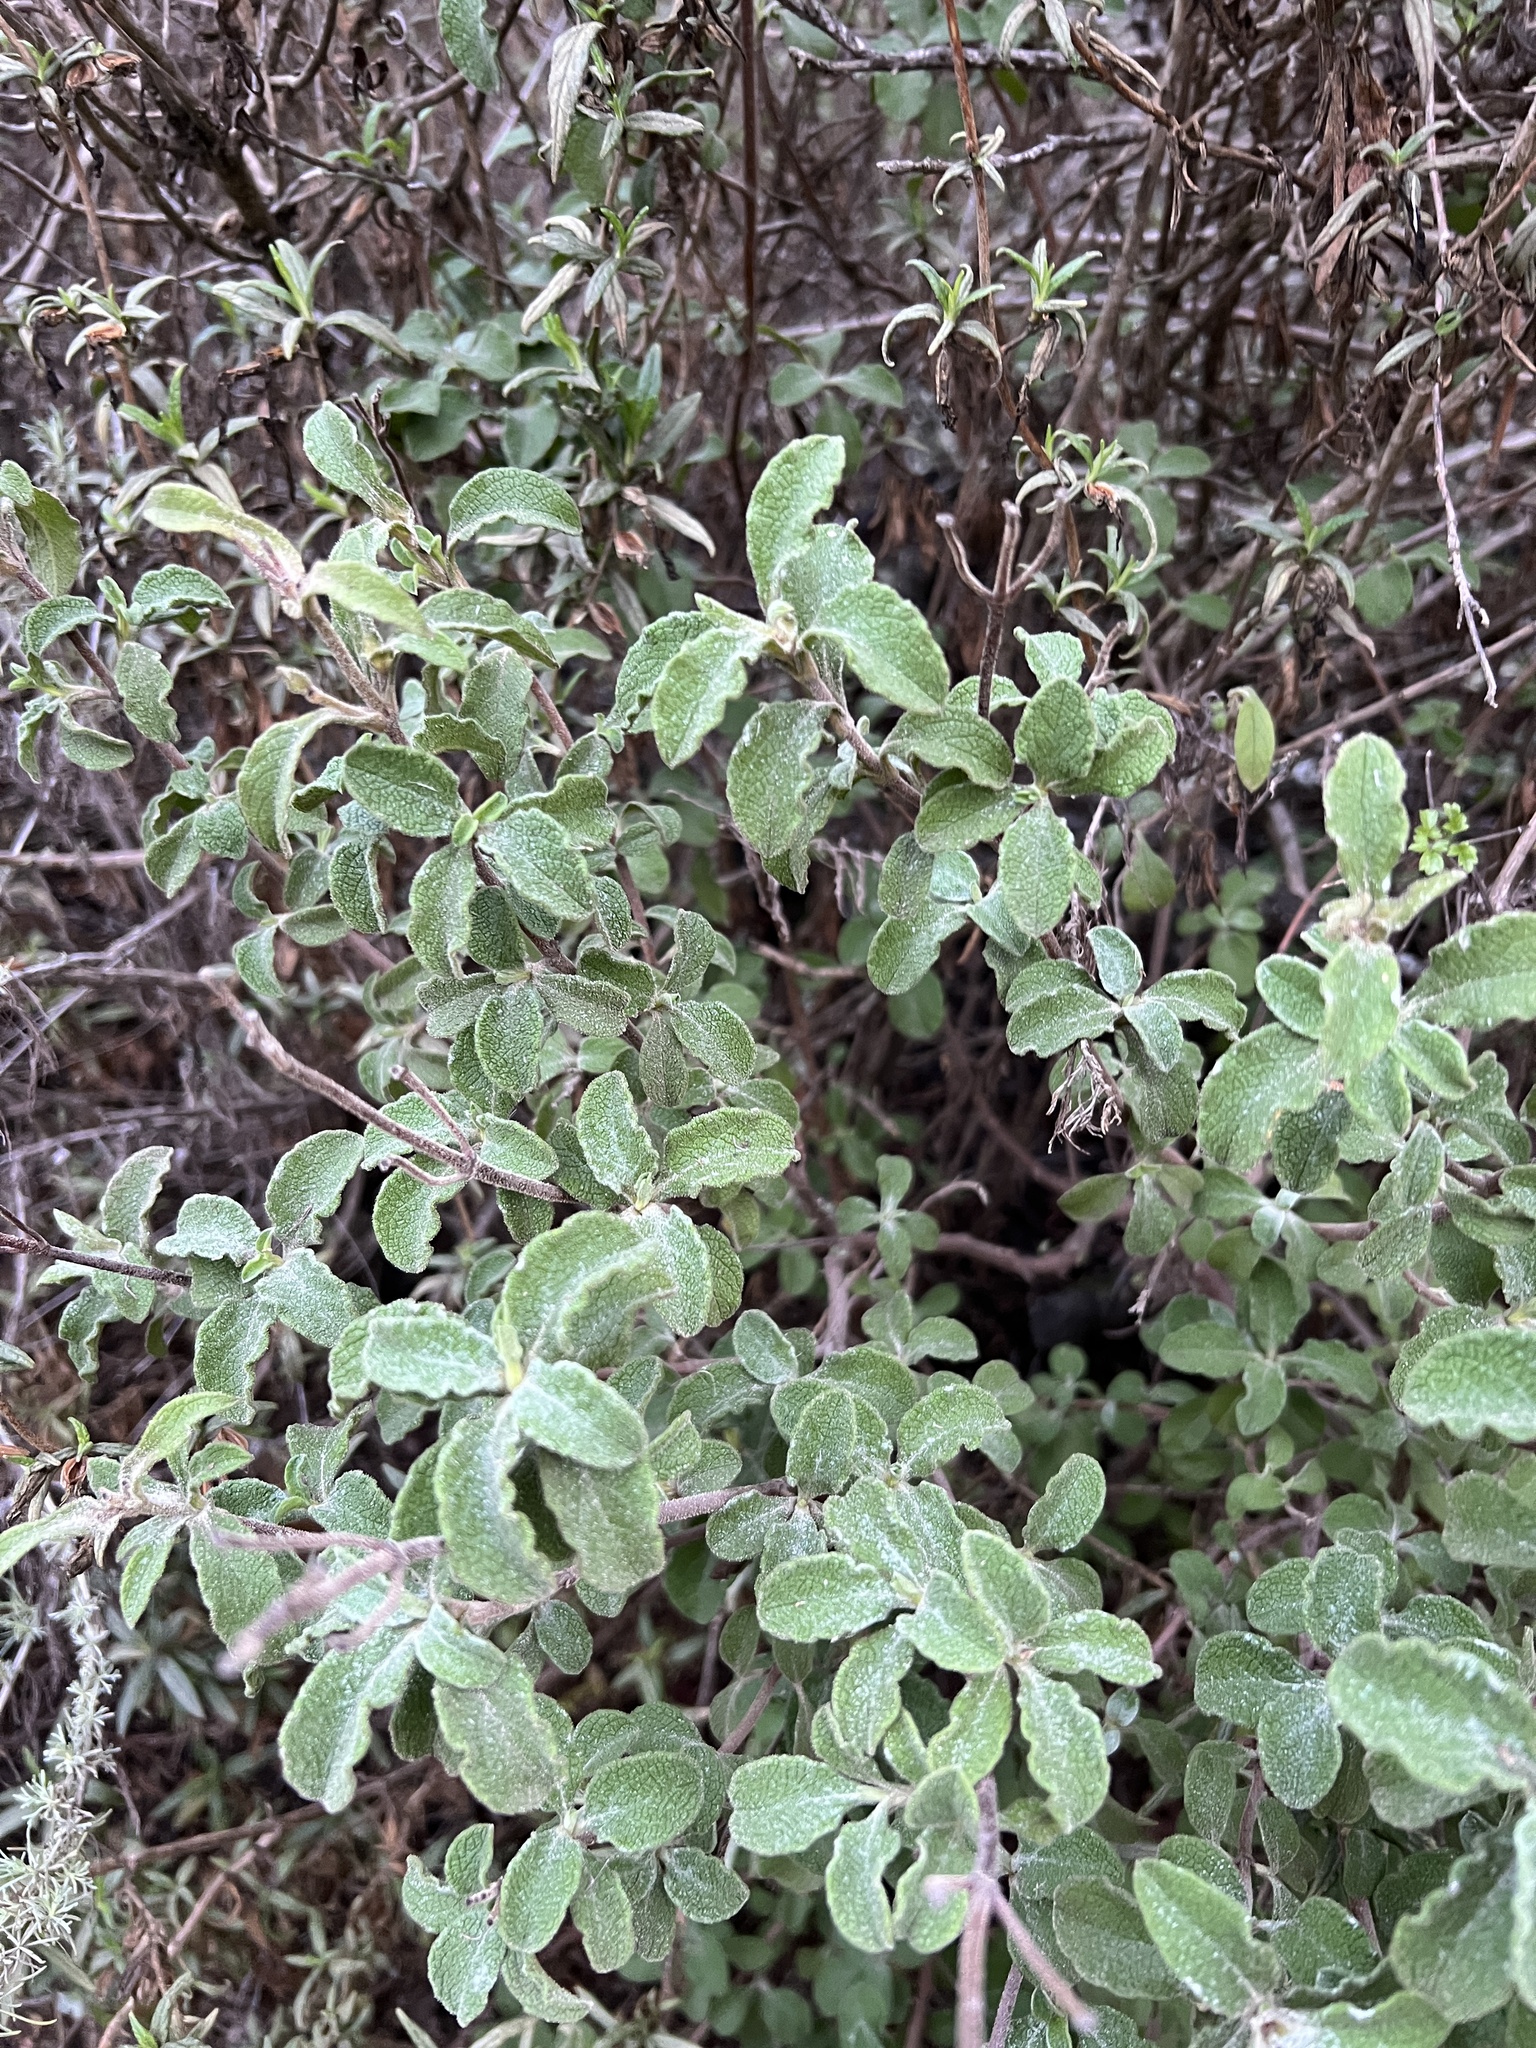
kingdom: Plantae
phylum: Tracheophyta
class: Magnoliopsida
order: Malvales
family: Cistaceae
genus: Cistus
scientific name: Cistus creticus
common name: Cretan rockrose
